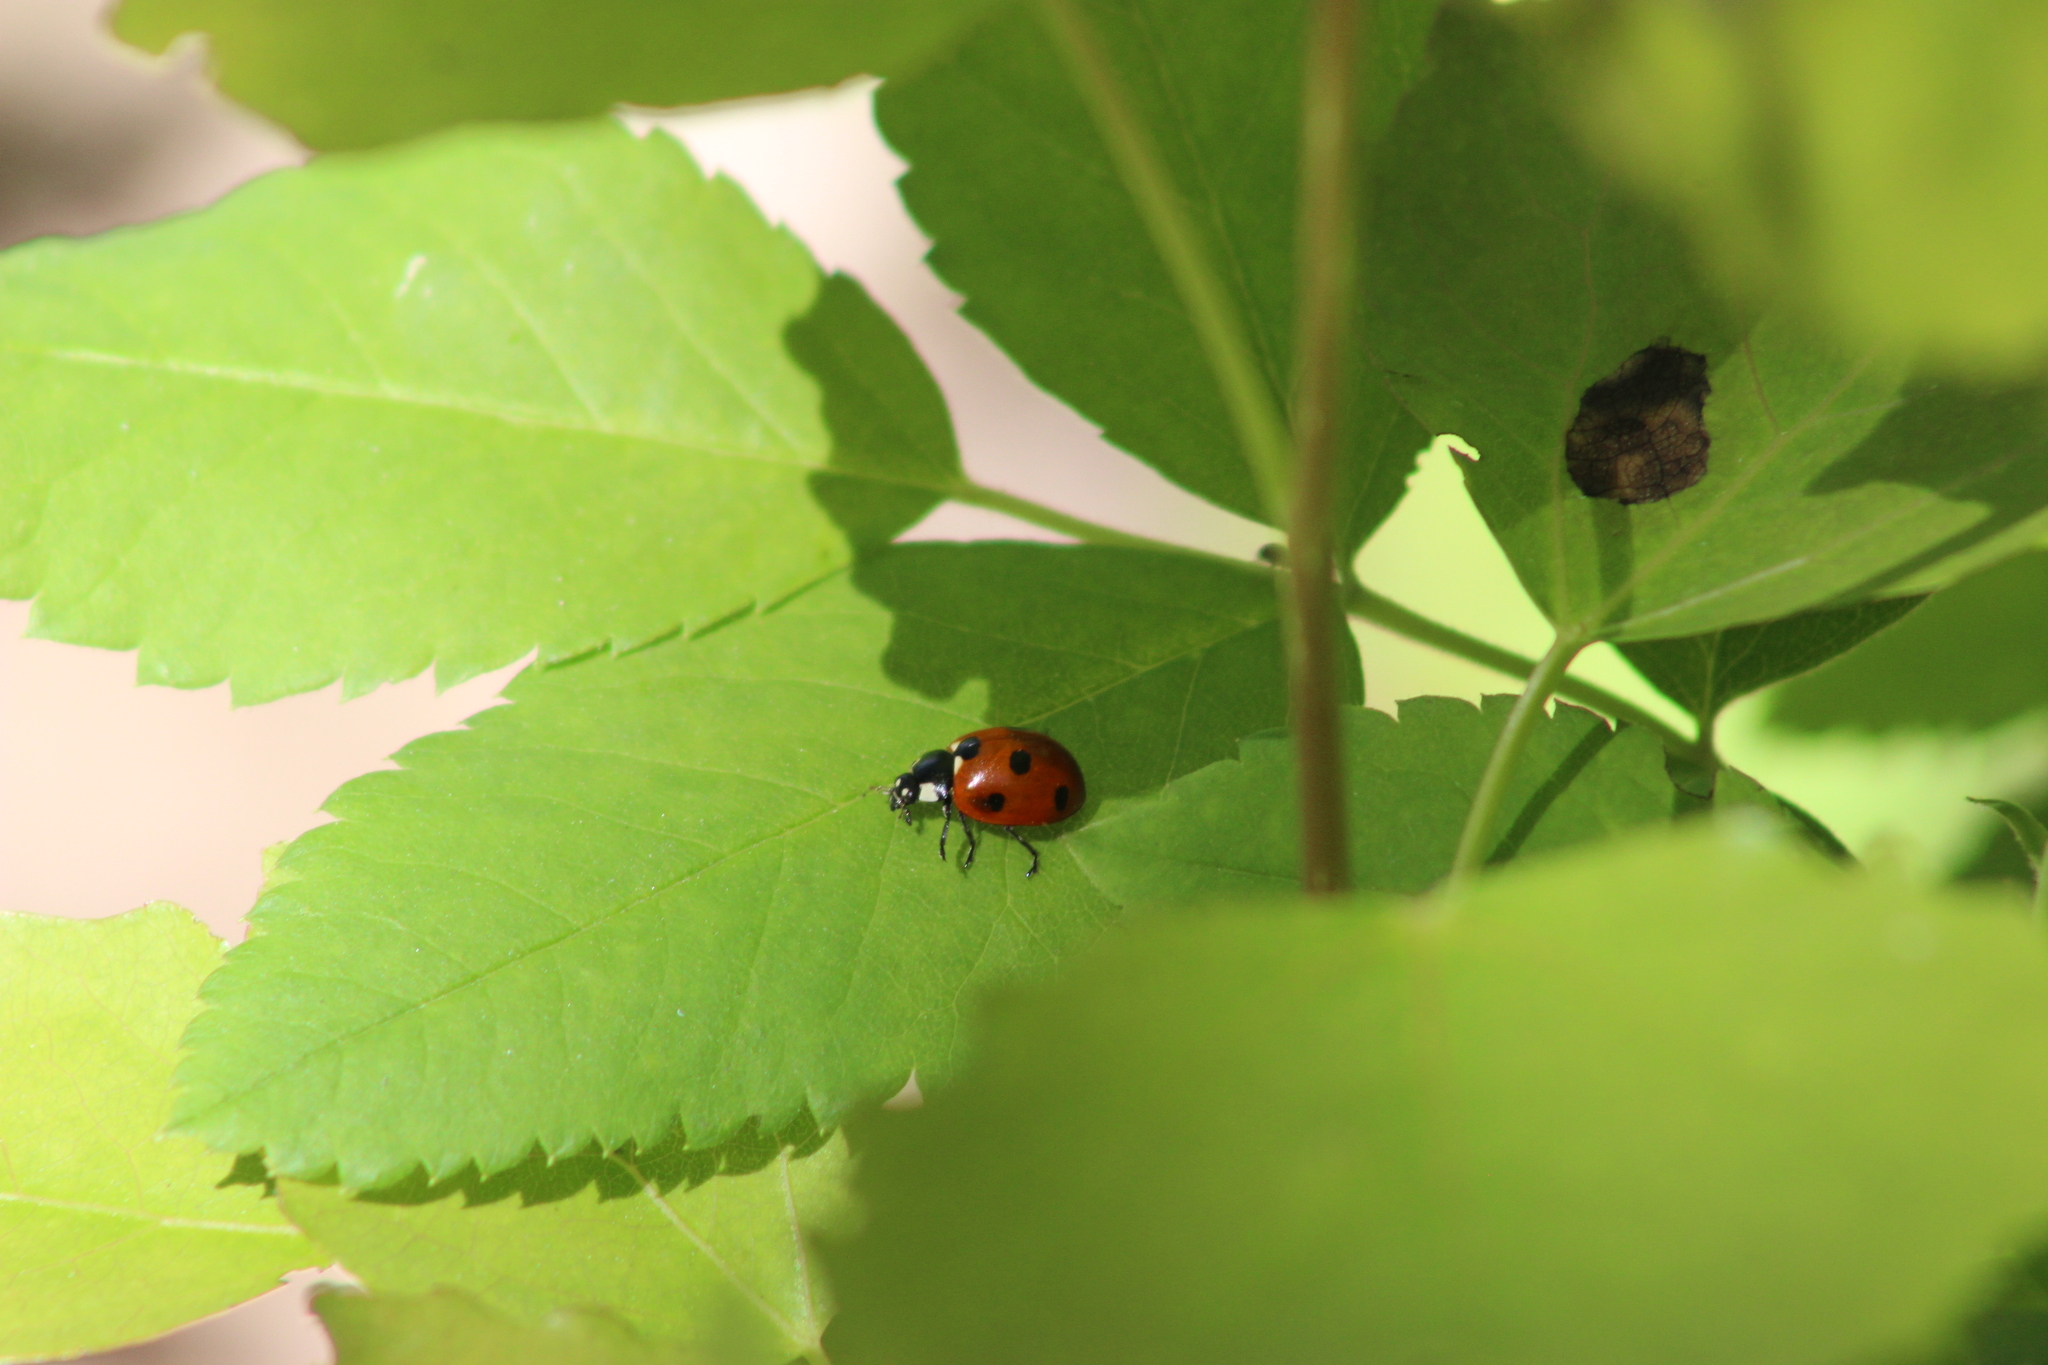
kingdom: Animalia
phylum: Arthropoda
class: Insecta
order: Coleoptera
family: Coccinellidae
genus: Coccinella
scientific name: Coccinella septempunctata
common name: Sevenspotted lady beetle
